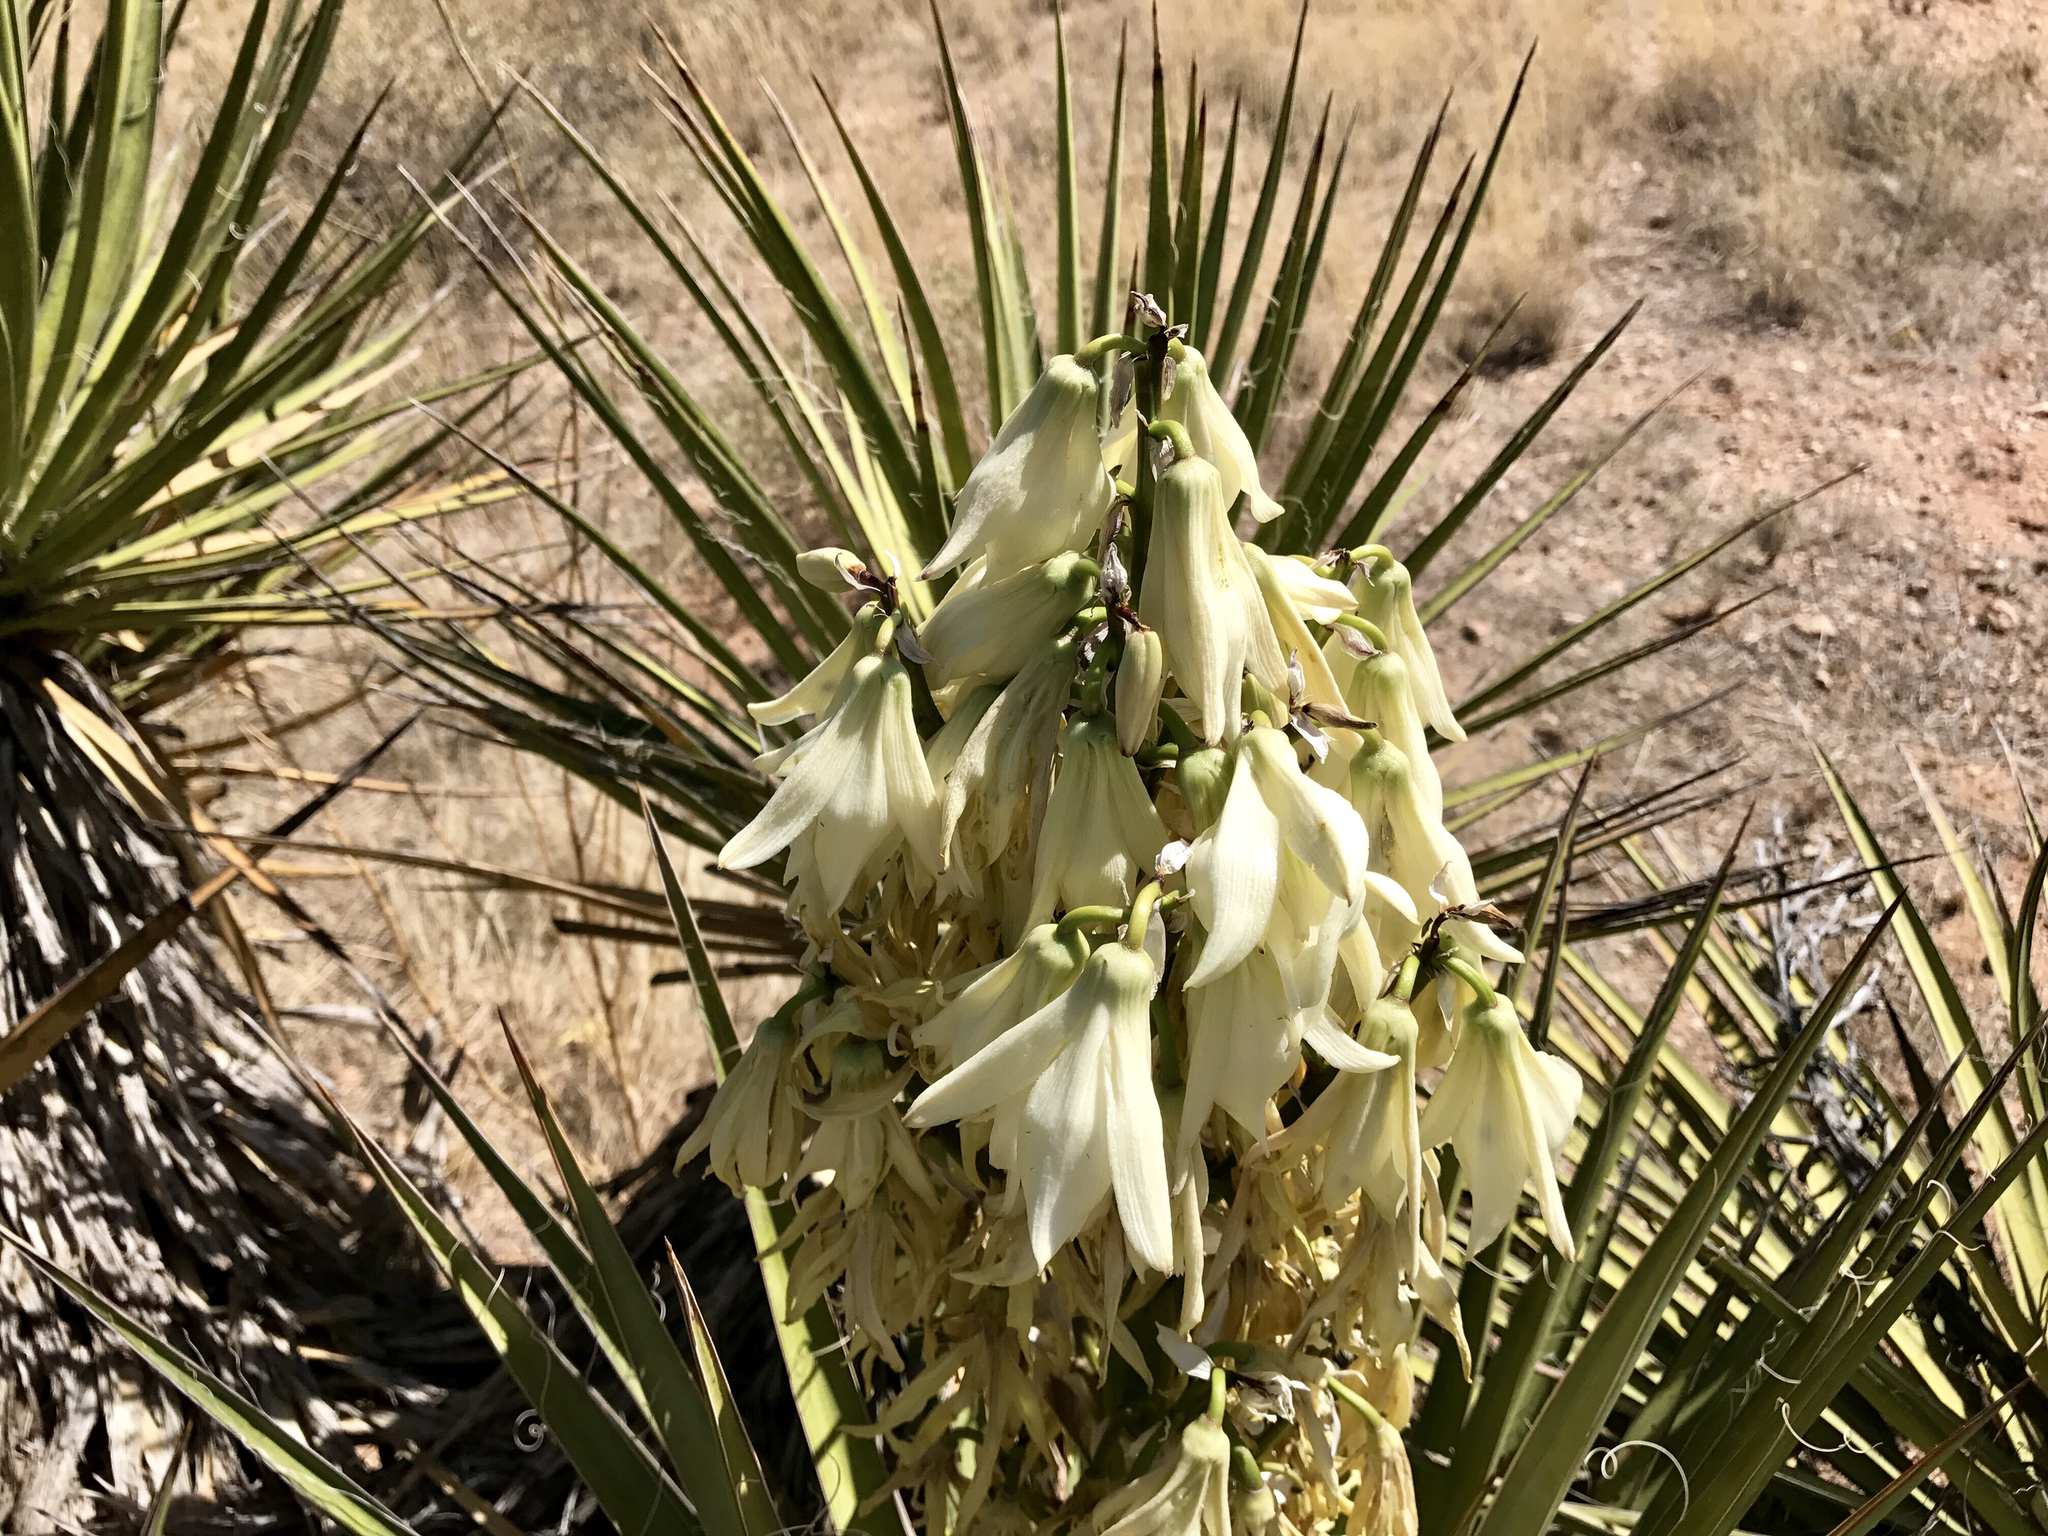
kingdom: Plantae
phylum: Tracheophyta
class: Liliopsida
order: Asparagales
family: Asparagaceae
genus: Yucca
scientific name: Yucca baccata
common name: Banana yucca
